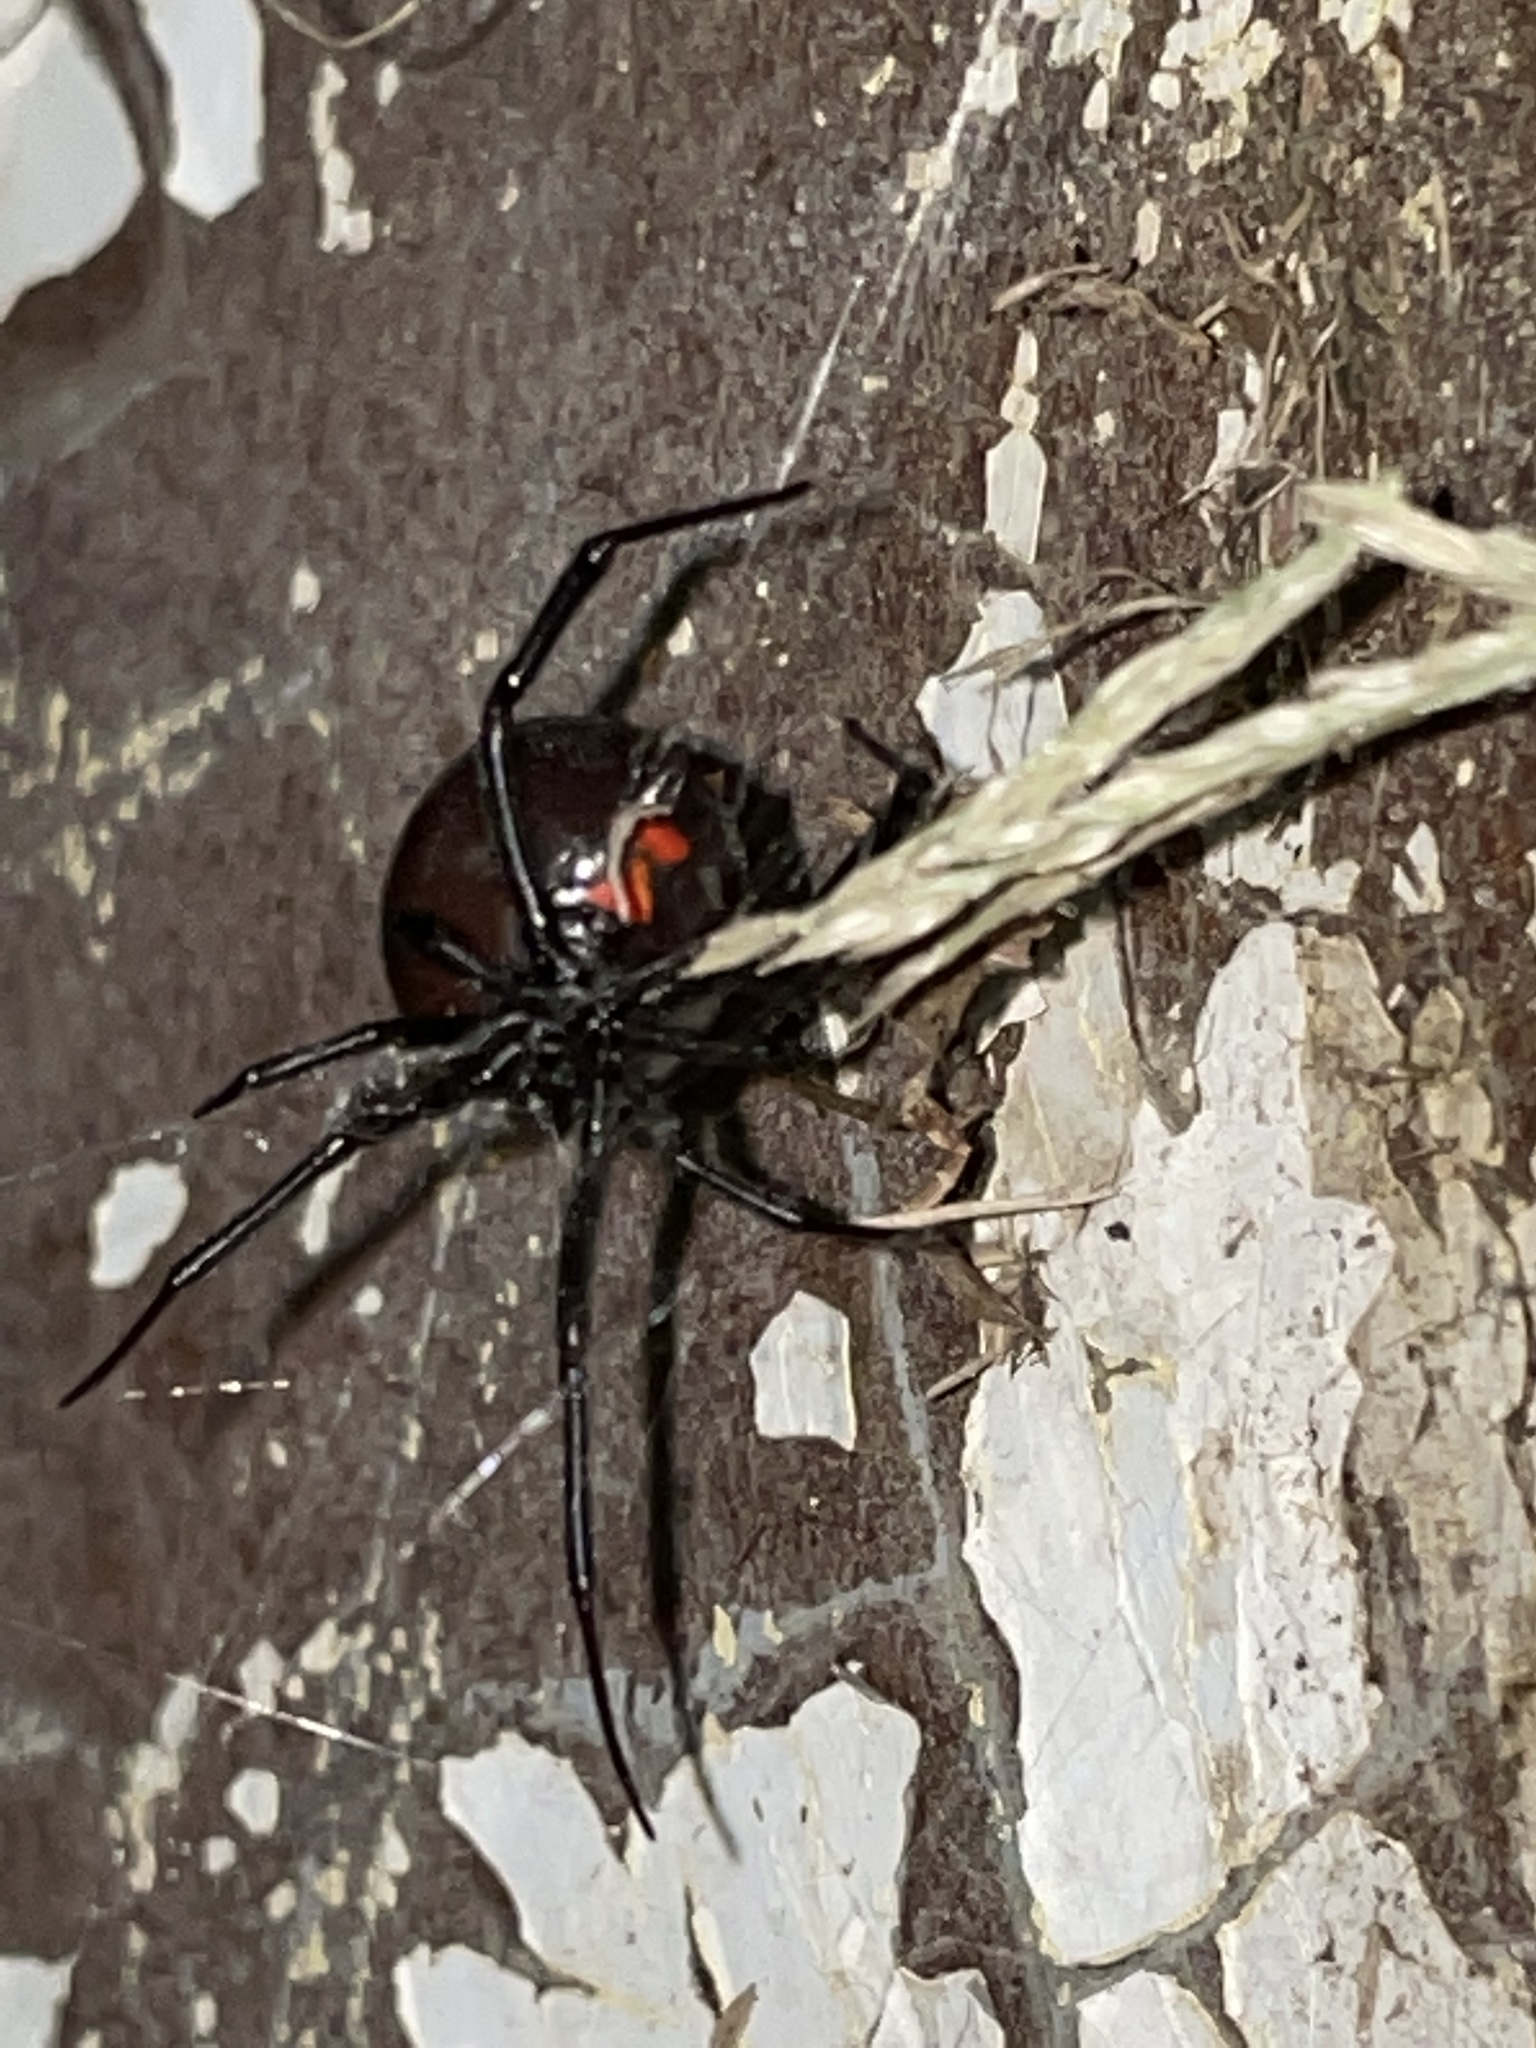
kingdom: Animalia
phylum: Arthropoda
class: Arachnida
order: Araneae
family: Theridiidae
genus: Latrodectus
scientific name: Latrodectus mactans
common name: Cobweb spiders
